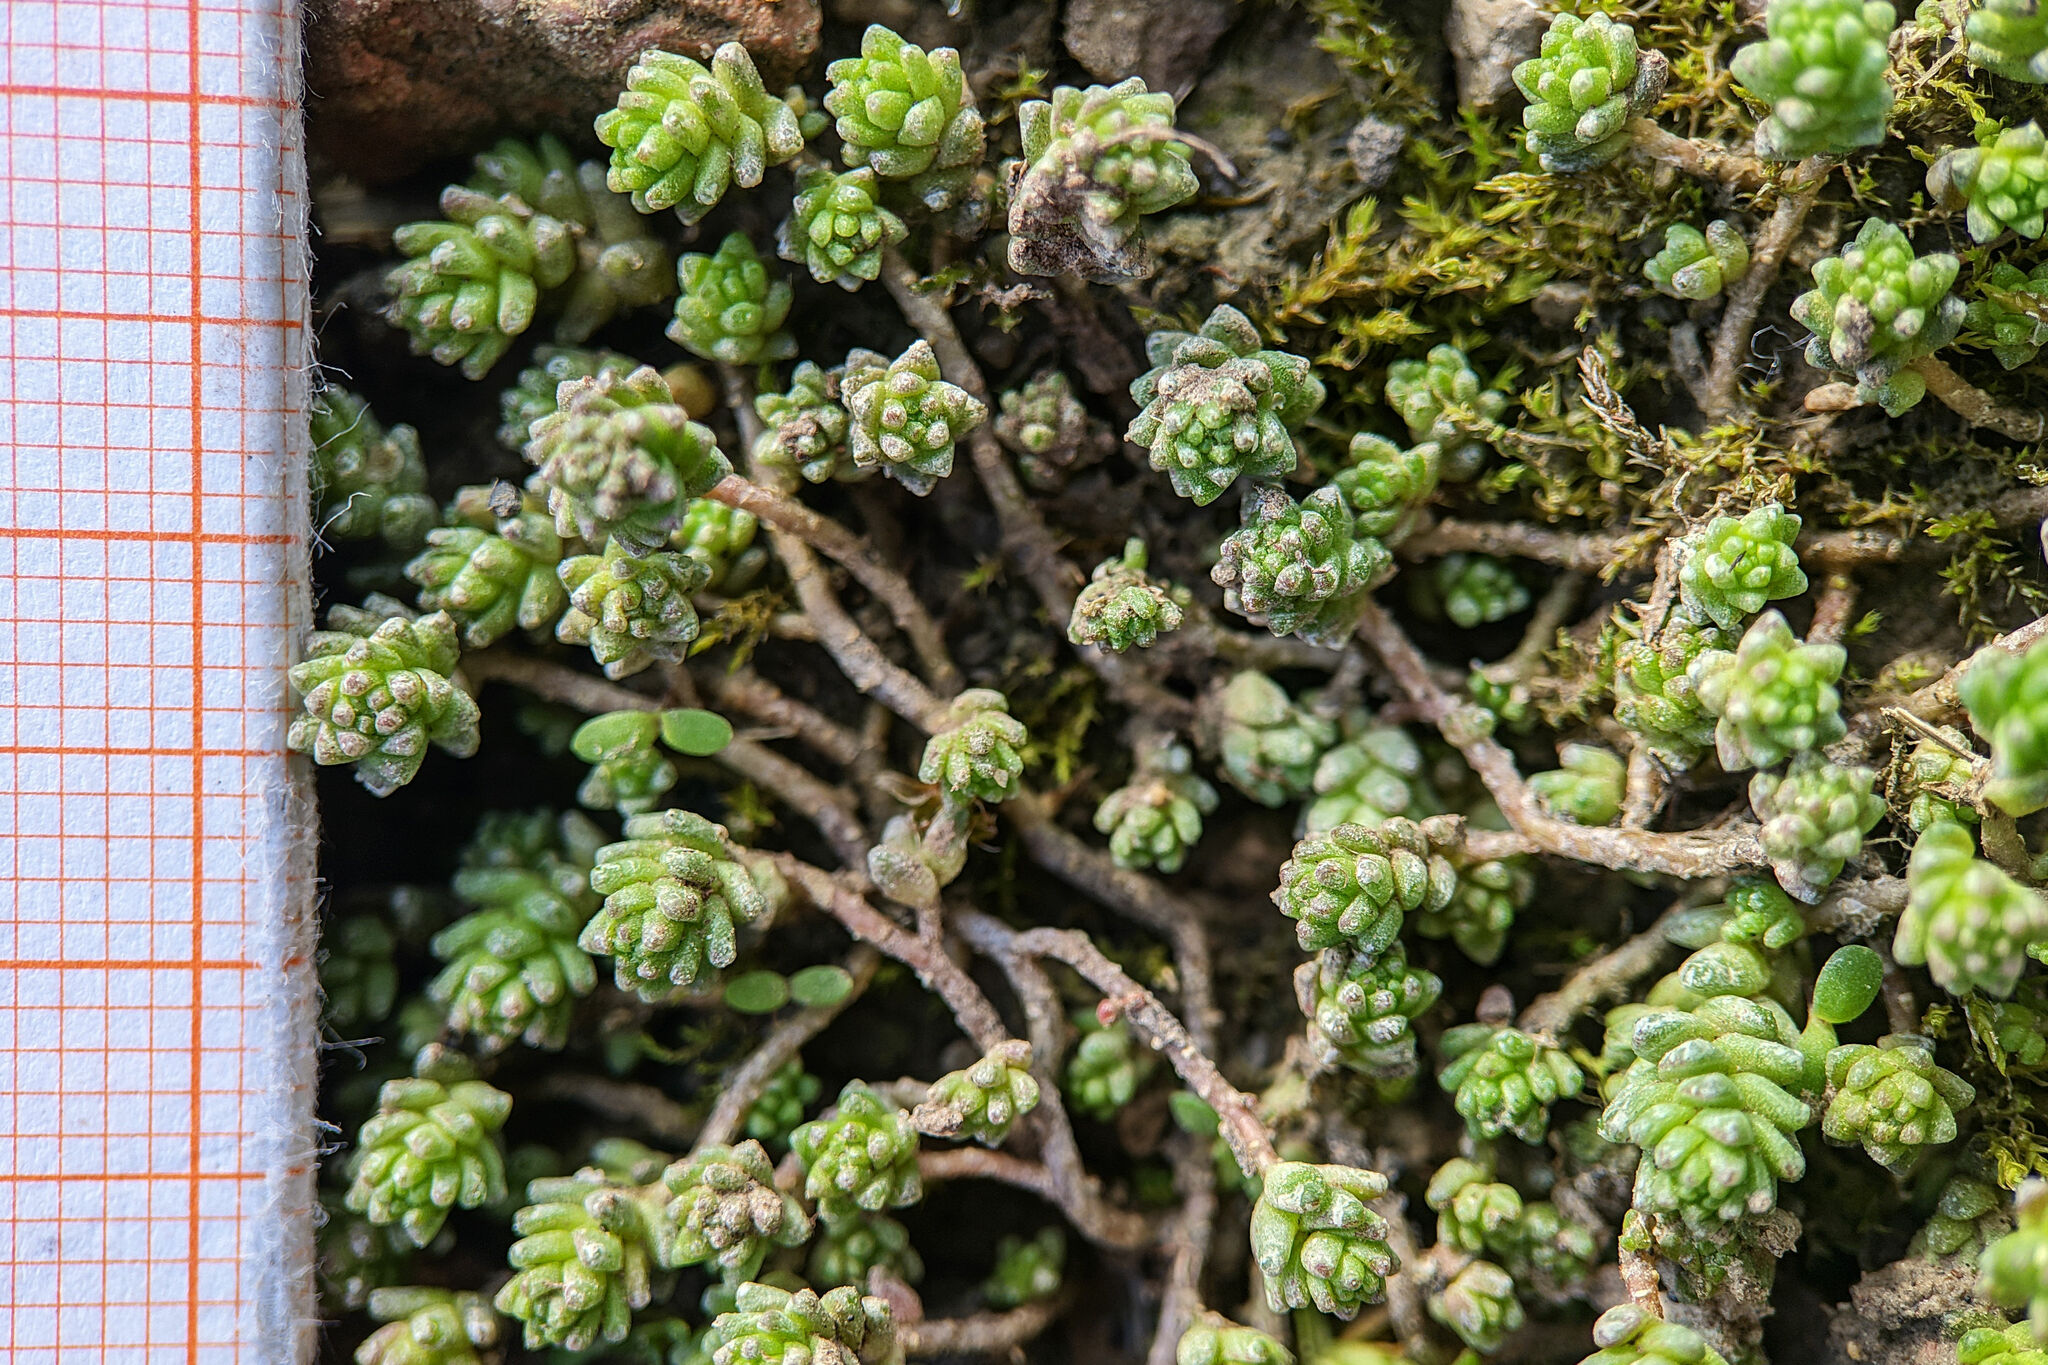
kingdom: Plantae
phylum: Tracheophyta
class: Magnoliopsida
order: Saxifragales
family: Crassulaceae
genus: Sedum
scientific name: Sedum acre
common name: Biting stonecrop
